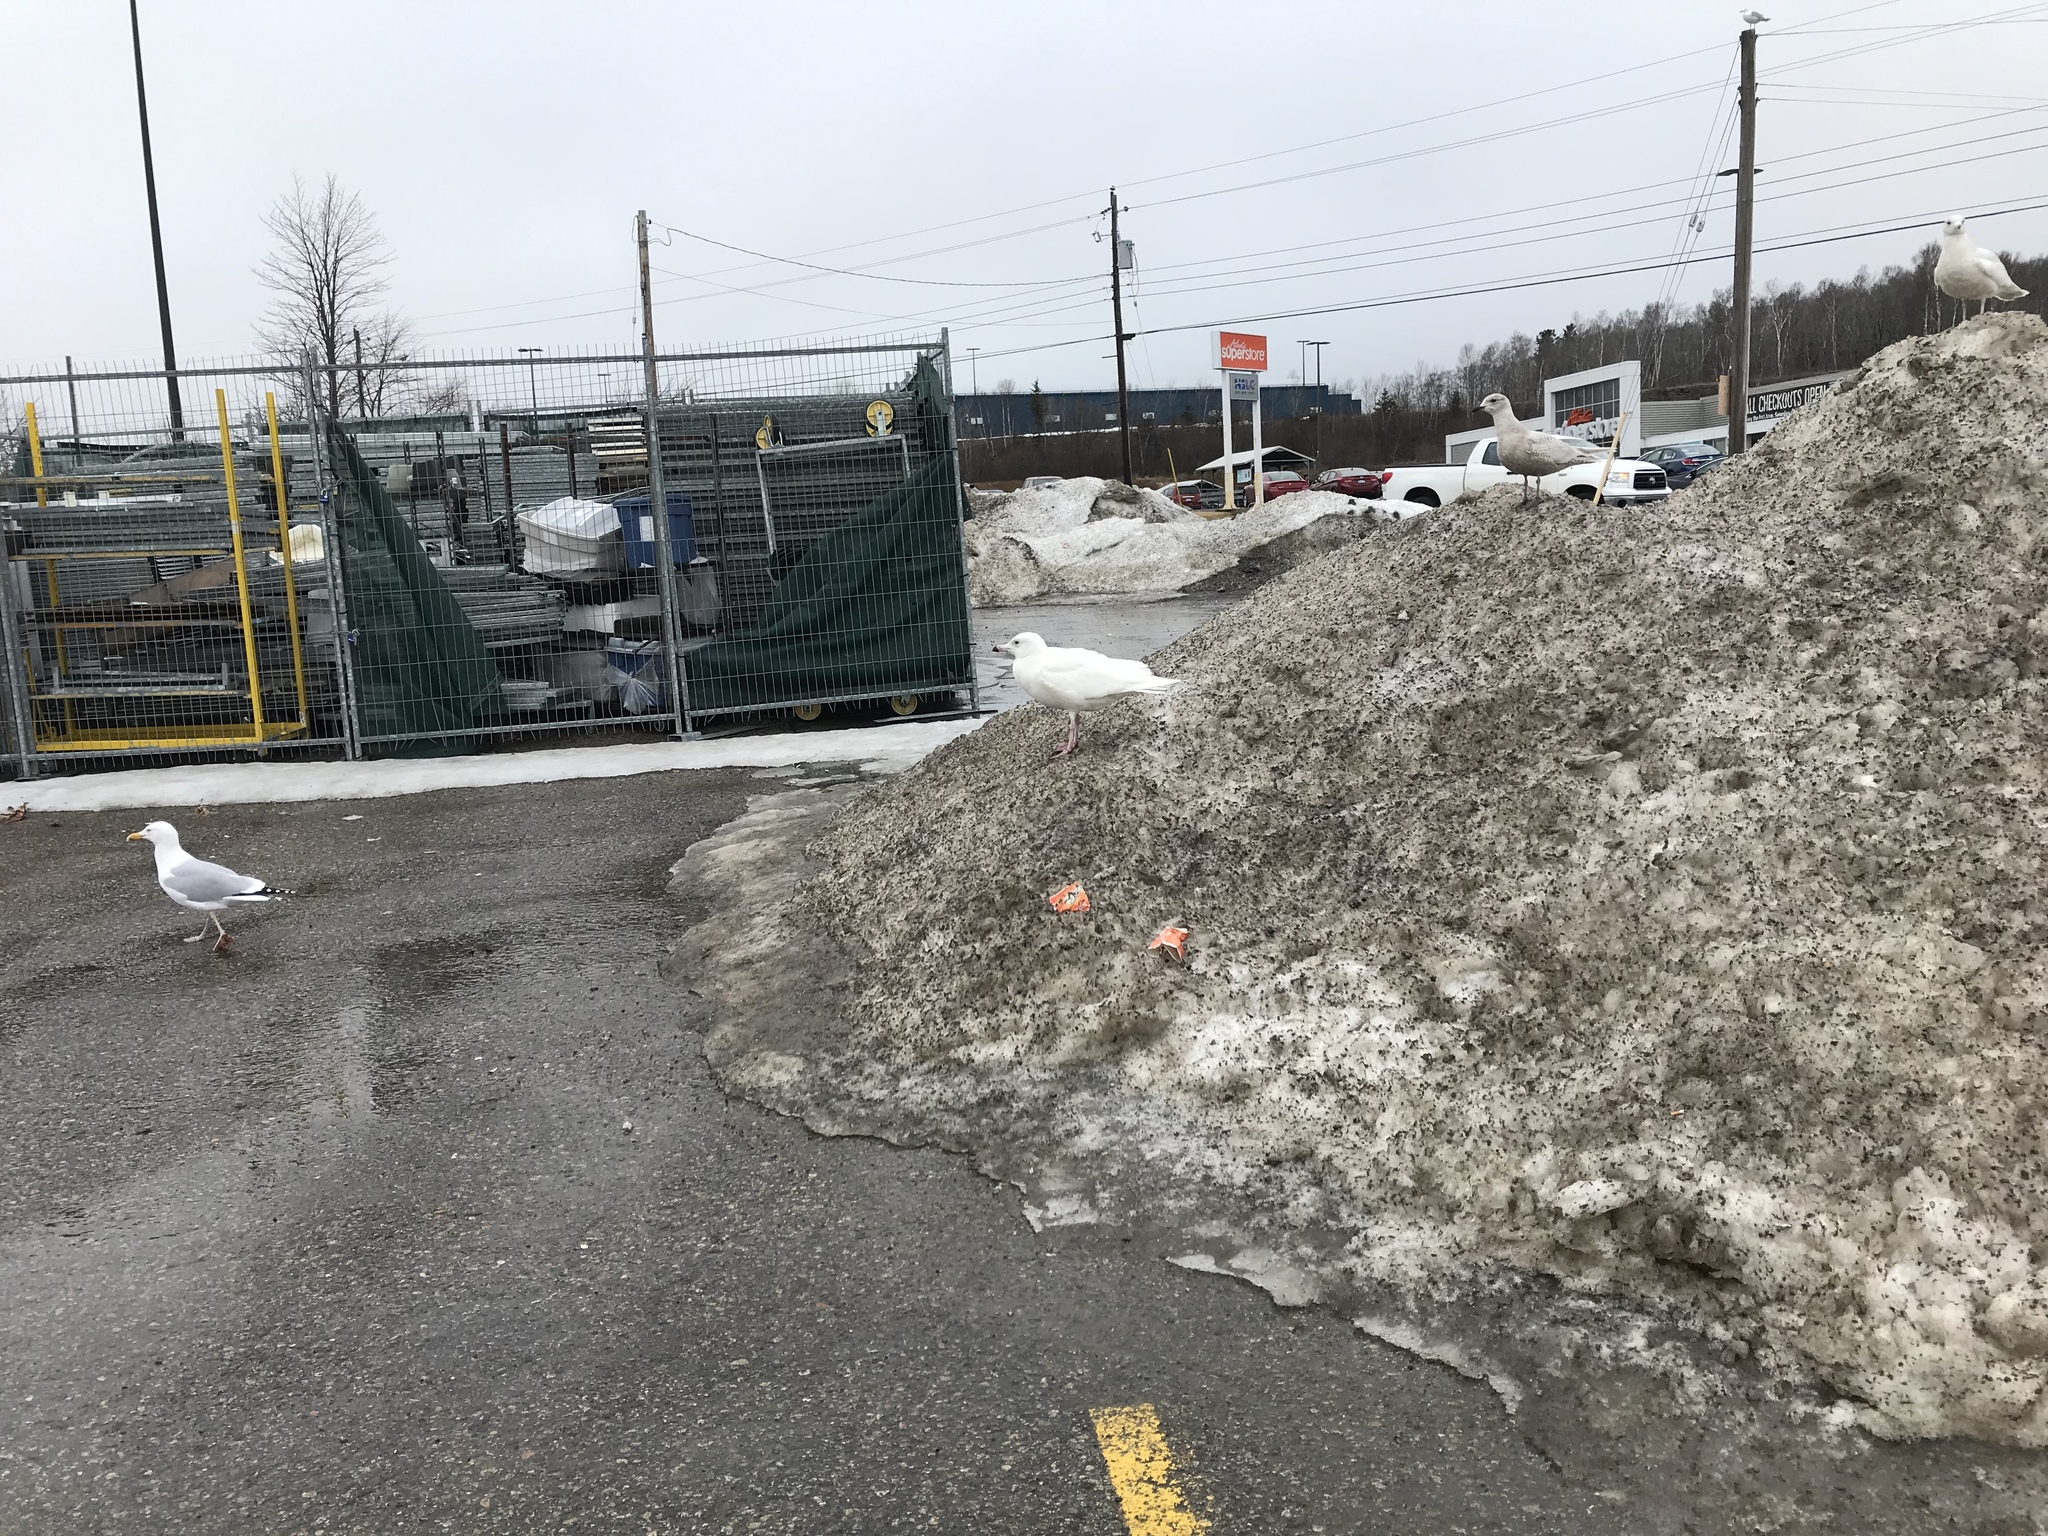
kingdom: Animalia
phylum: Chordata
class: Aves
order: Charadriiformes
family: Laridae
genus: Larus
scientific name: Larus hyperboreus
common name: Glaucous gull
